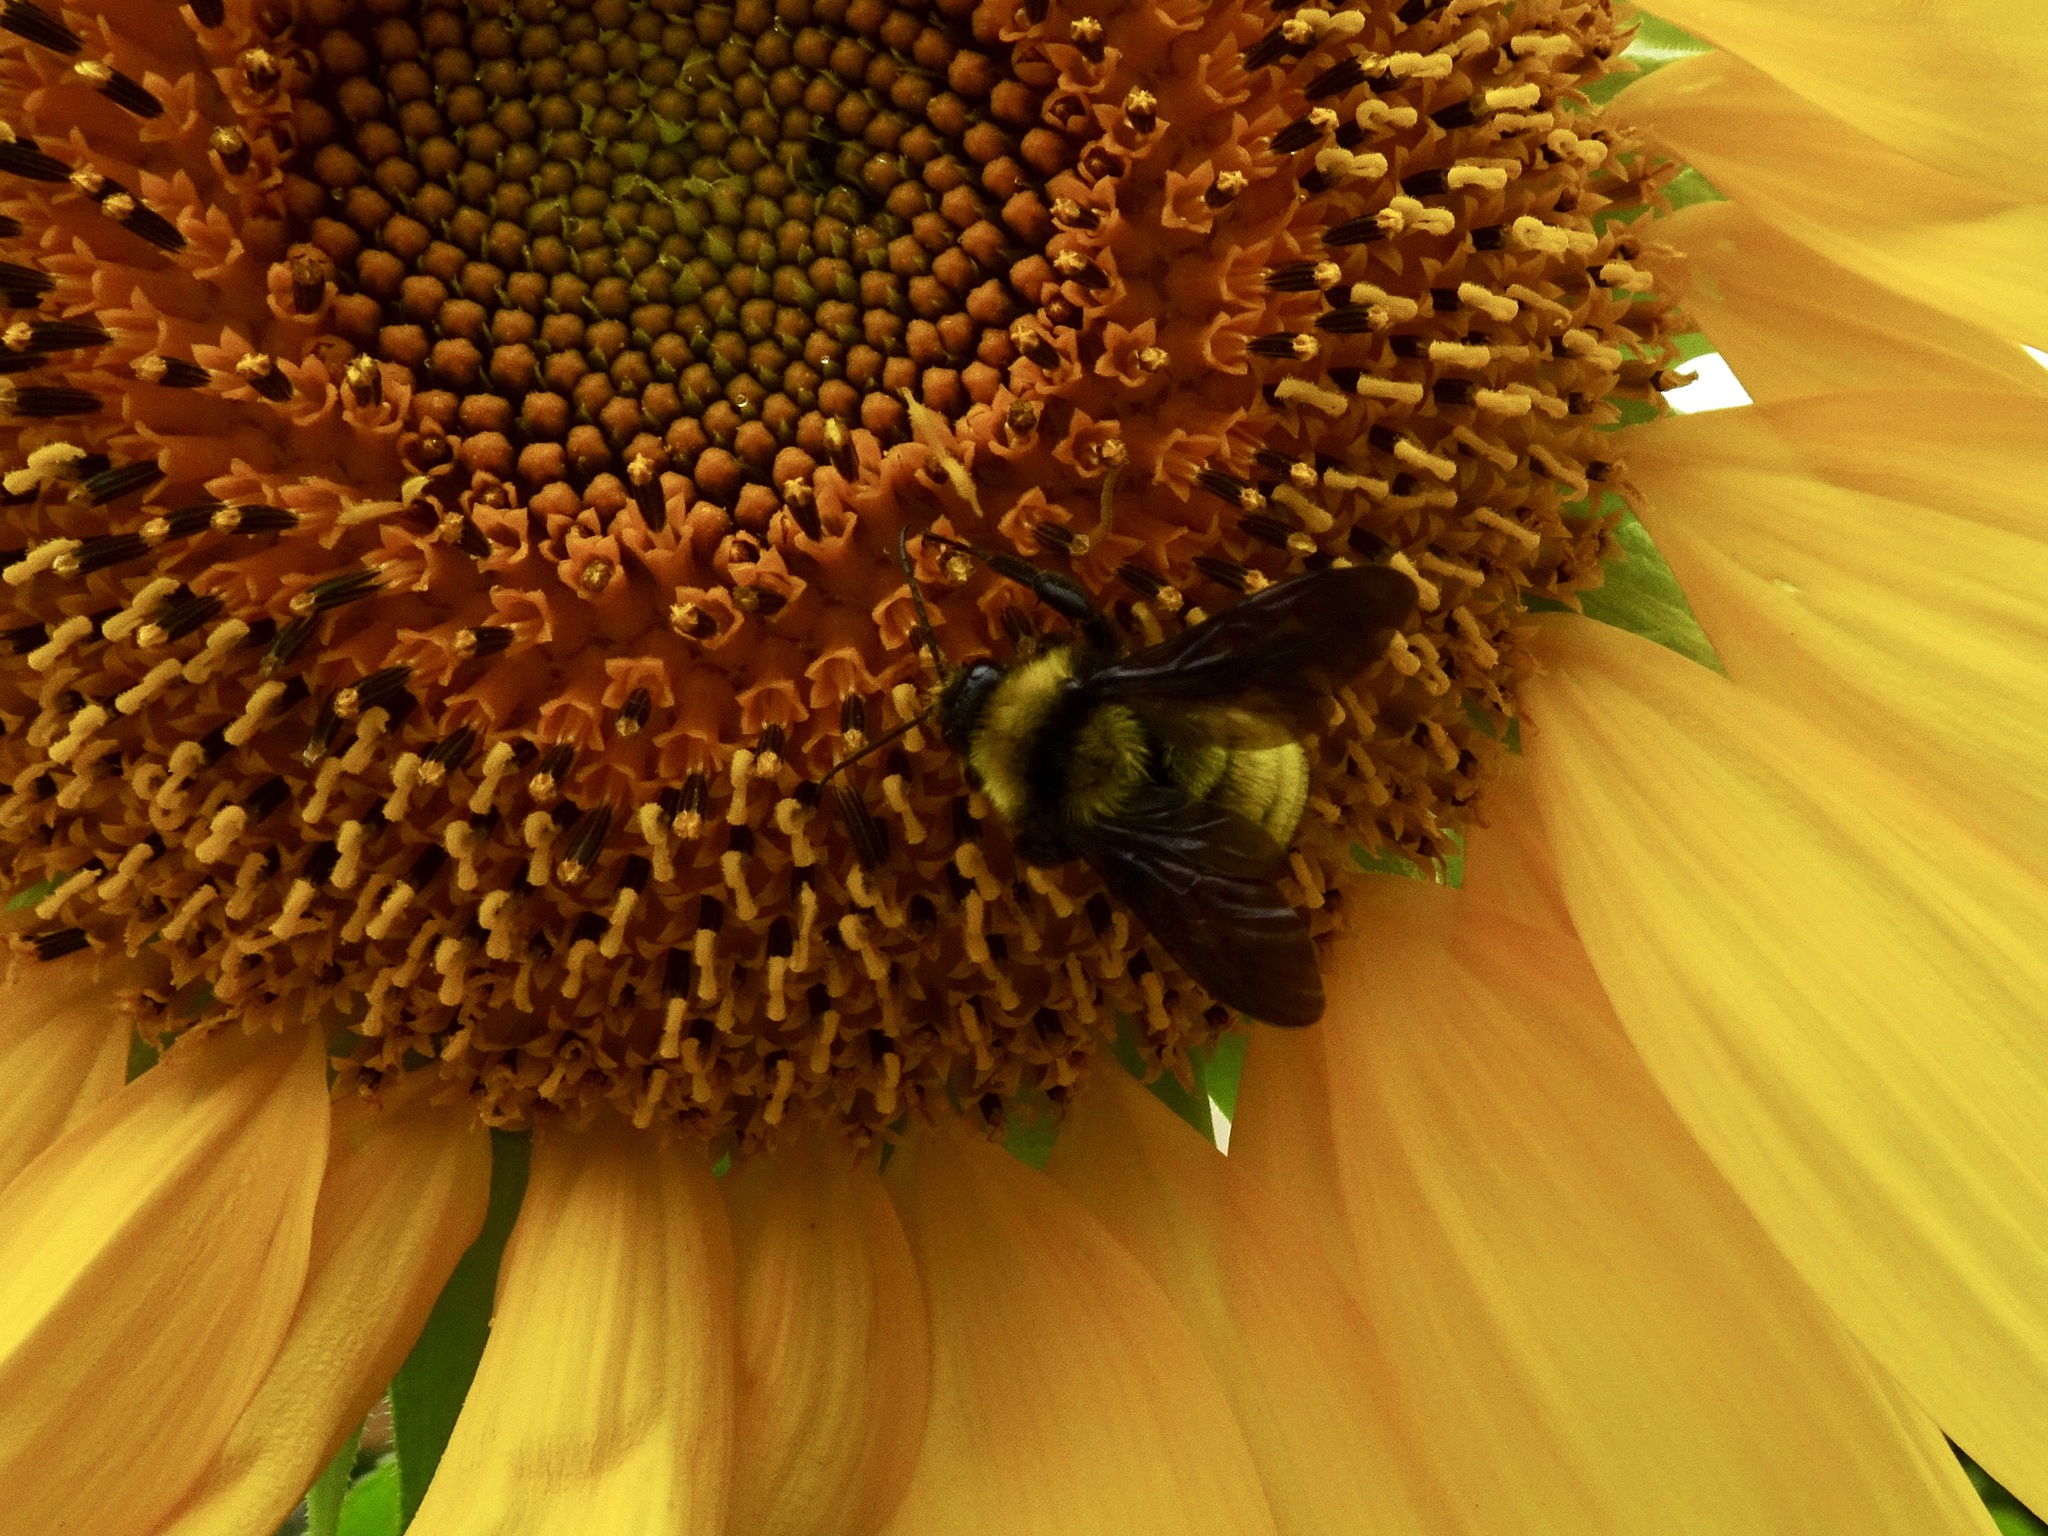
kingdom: Animalia
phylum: Arthropoda
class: Insecta
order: Hymenoptera
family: Apidae
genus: Bombus
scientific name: Bombus sonorus
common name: Sonoran bumble bee
